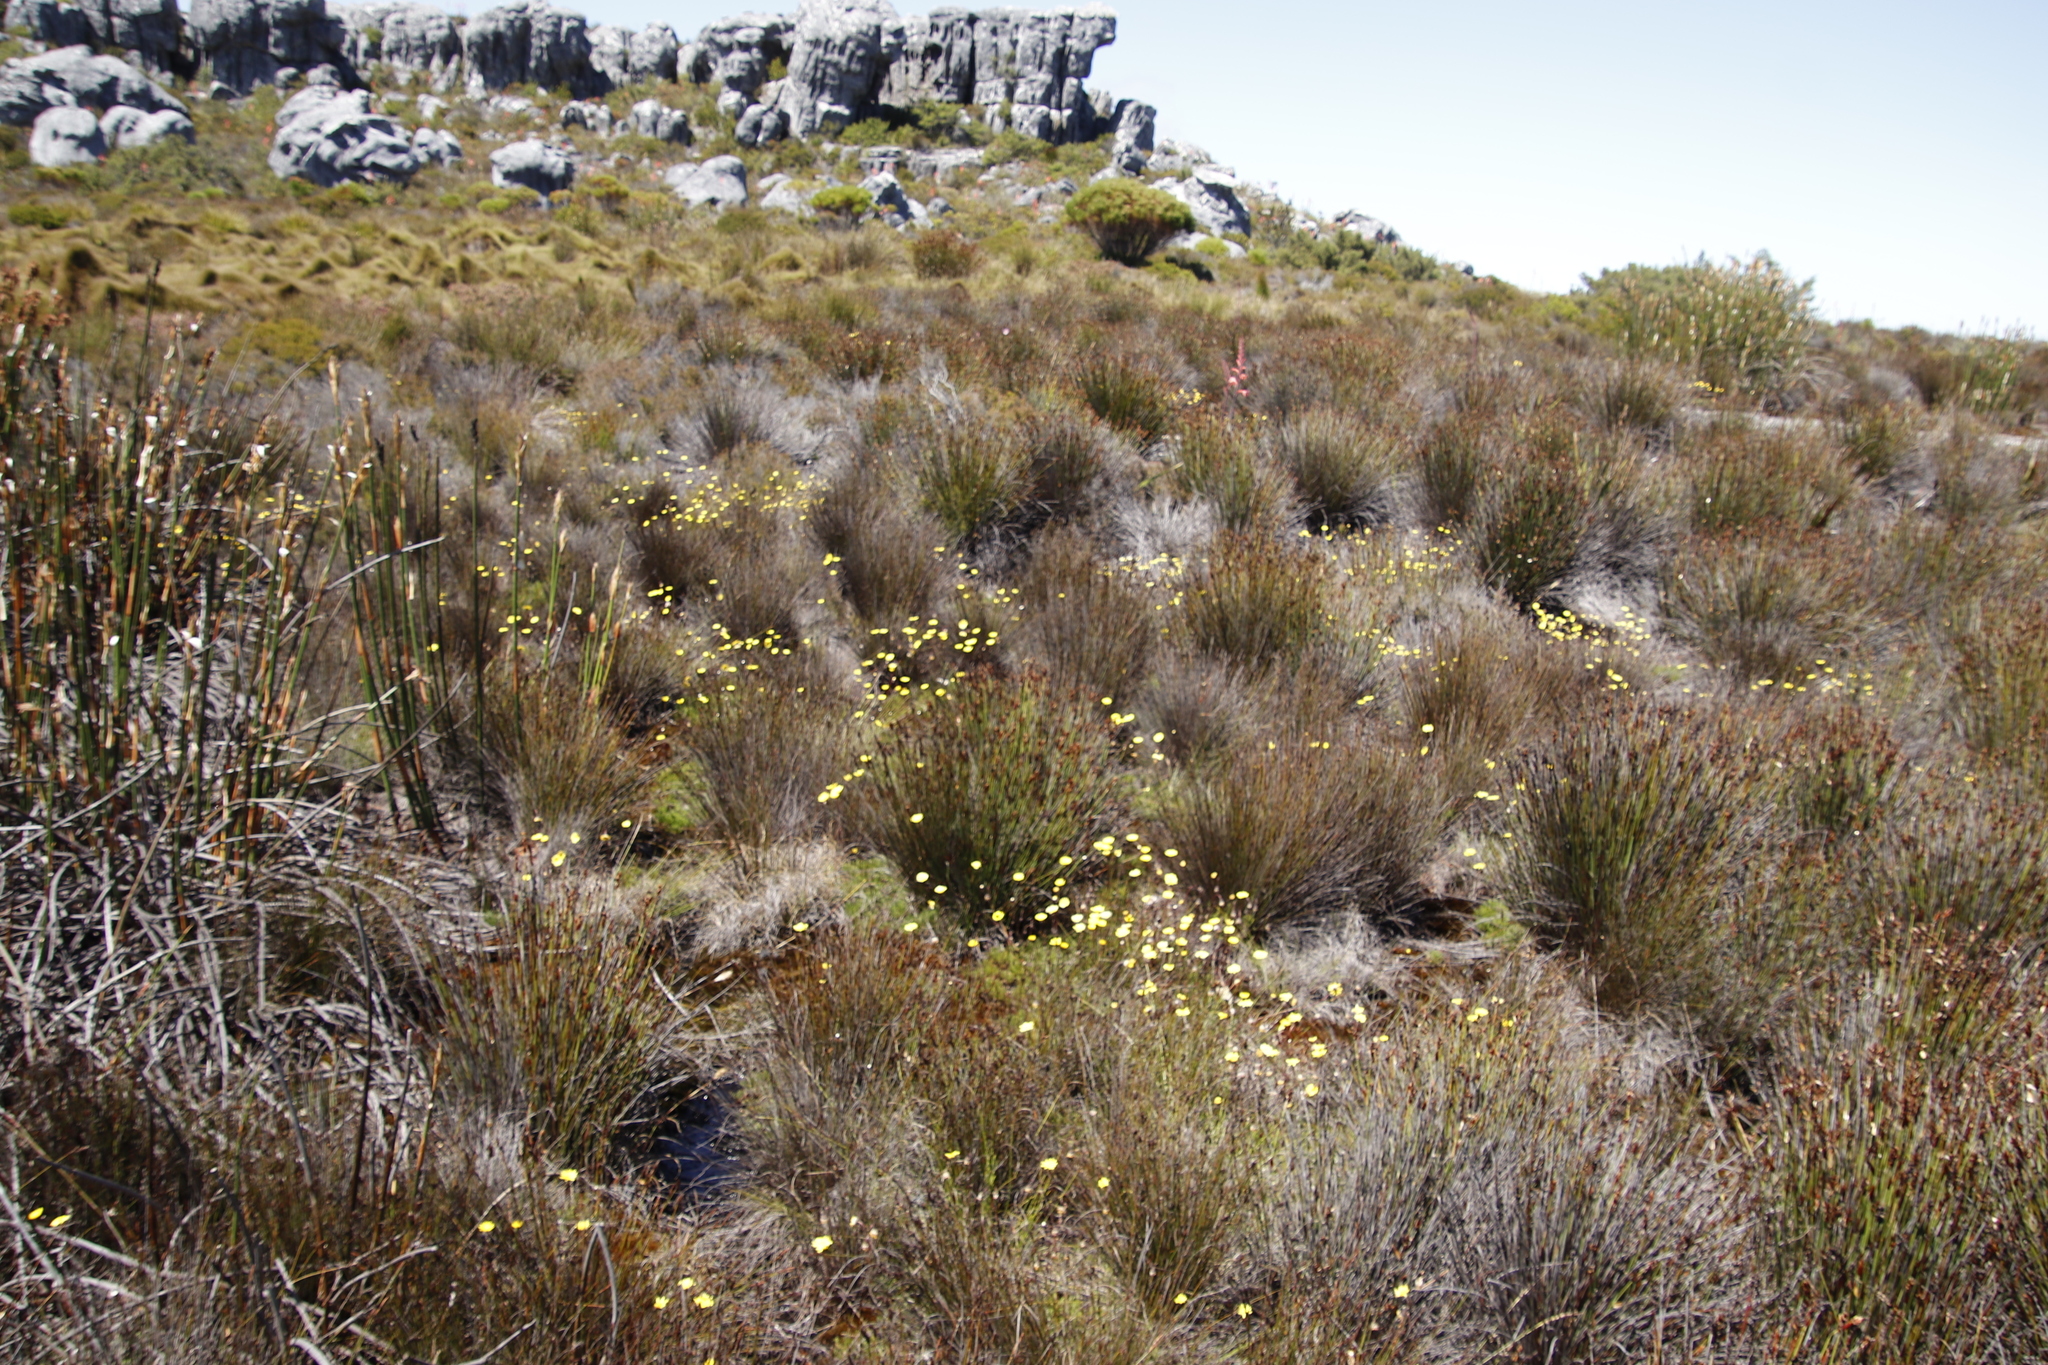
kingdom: Plantae
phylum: Tracheophyta
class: Magnoliopsida
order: Asterales
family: Asteraceae
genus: Ursinia
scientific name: Ursinia nudicaulis
